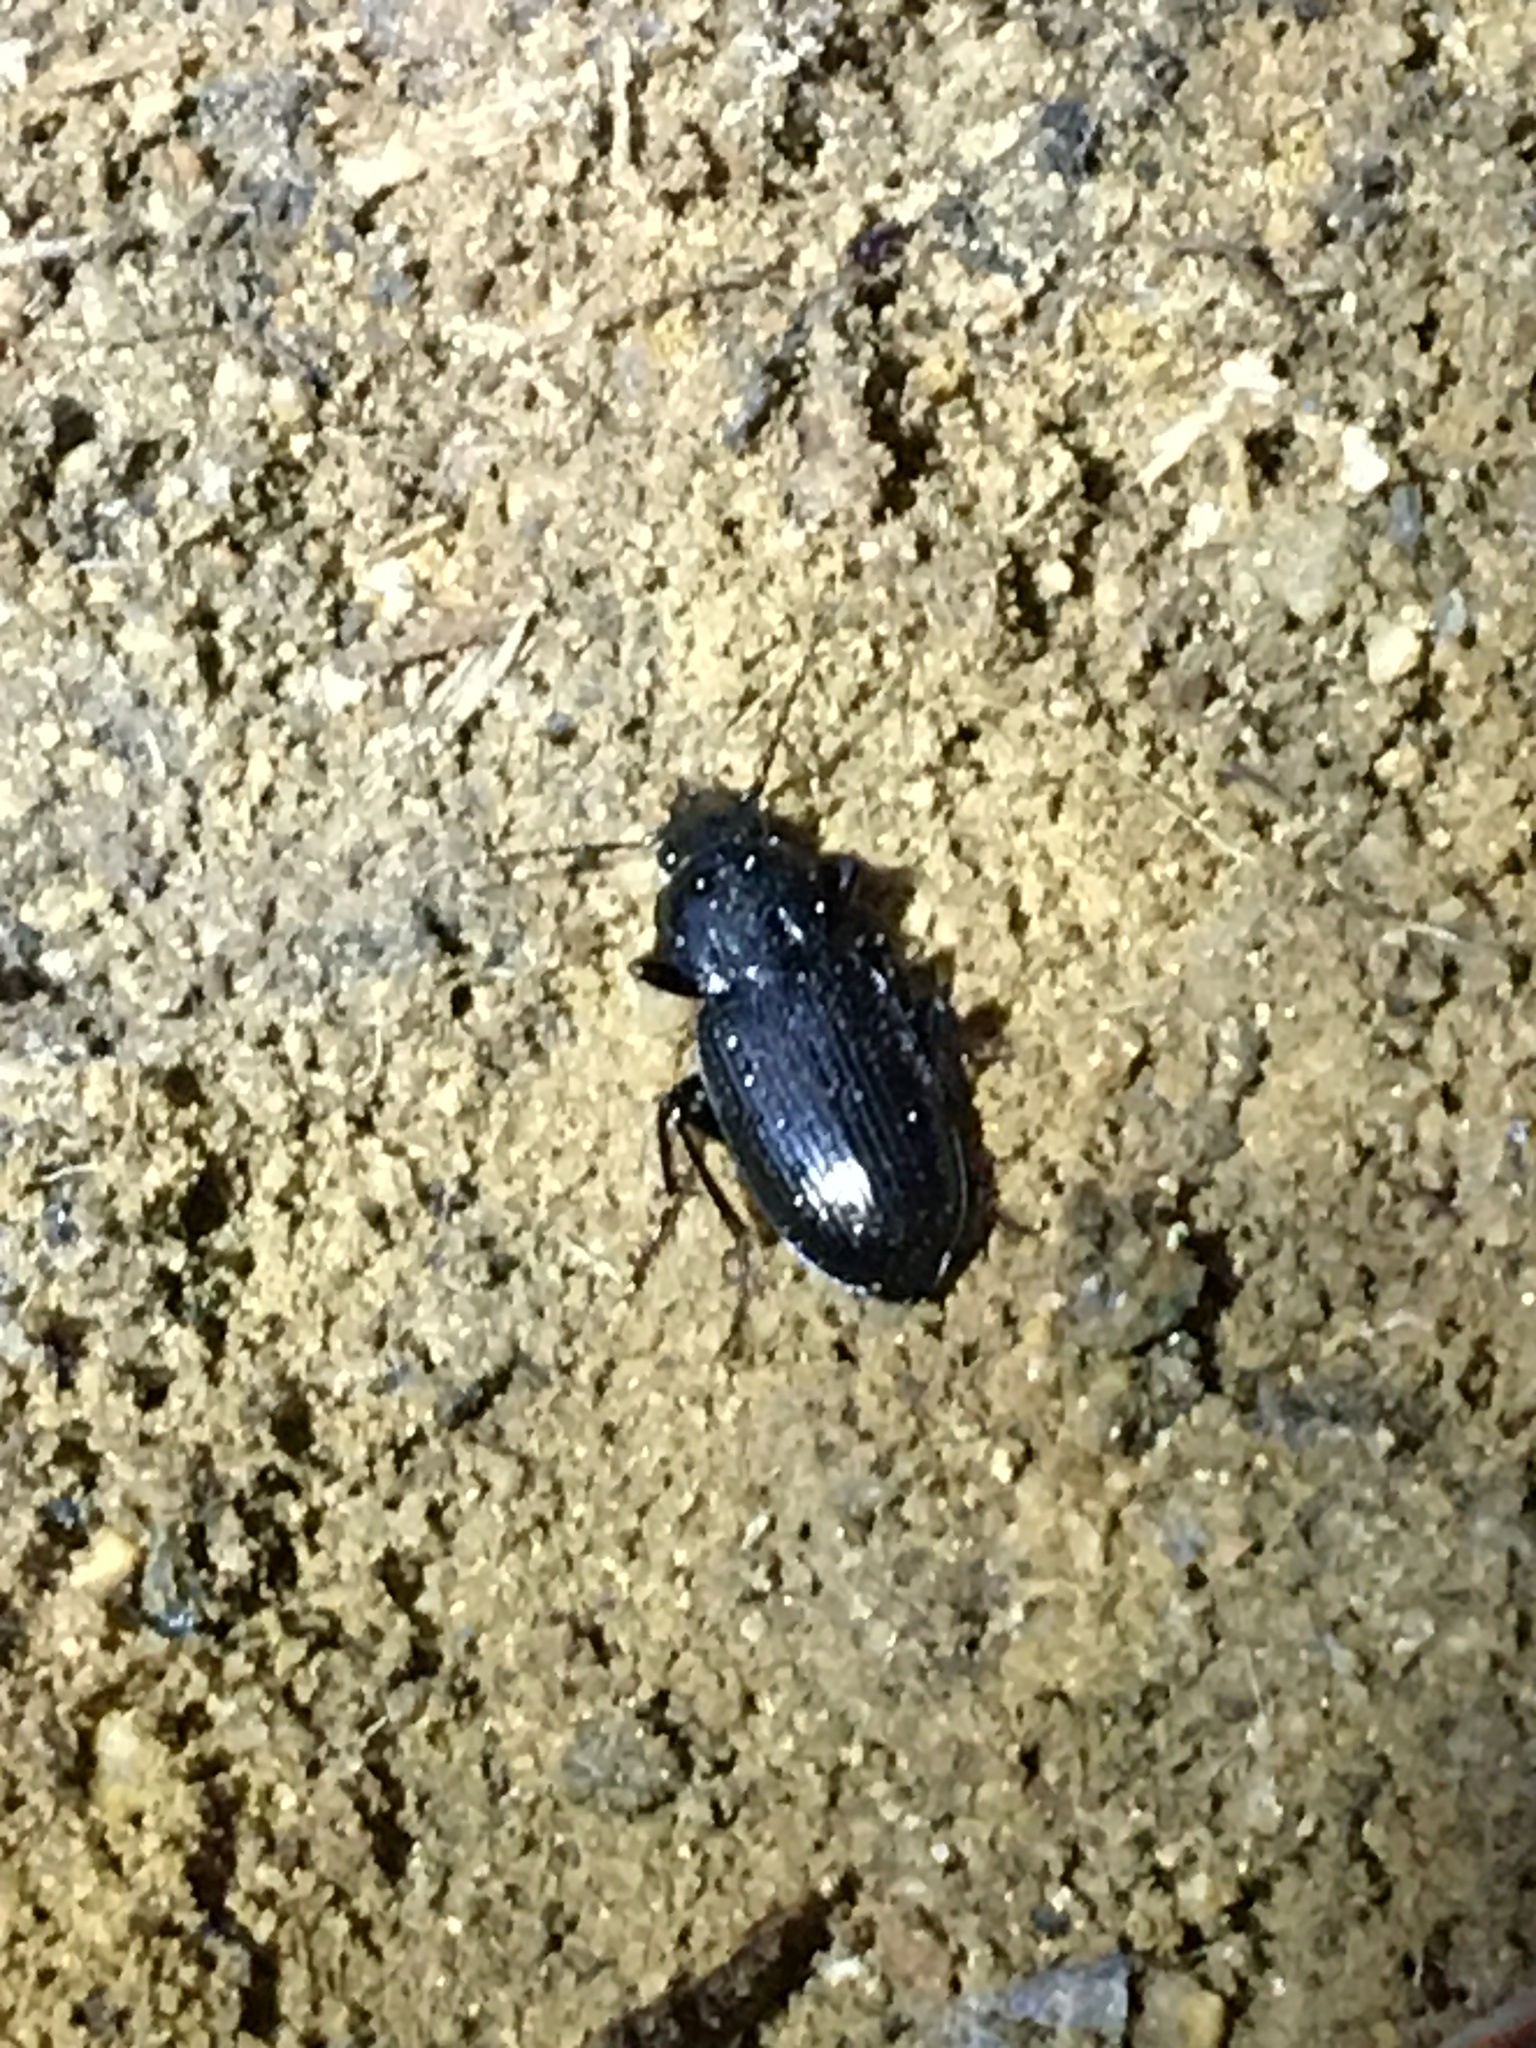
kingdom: Animalia
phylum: Arthropoda
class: Insecta
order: Coleoptera
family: Carabidae
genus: Pterostichus
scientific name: Pterostichus mutus
